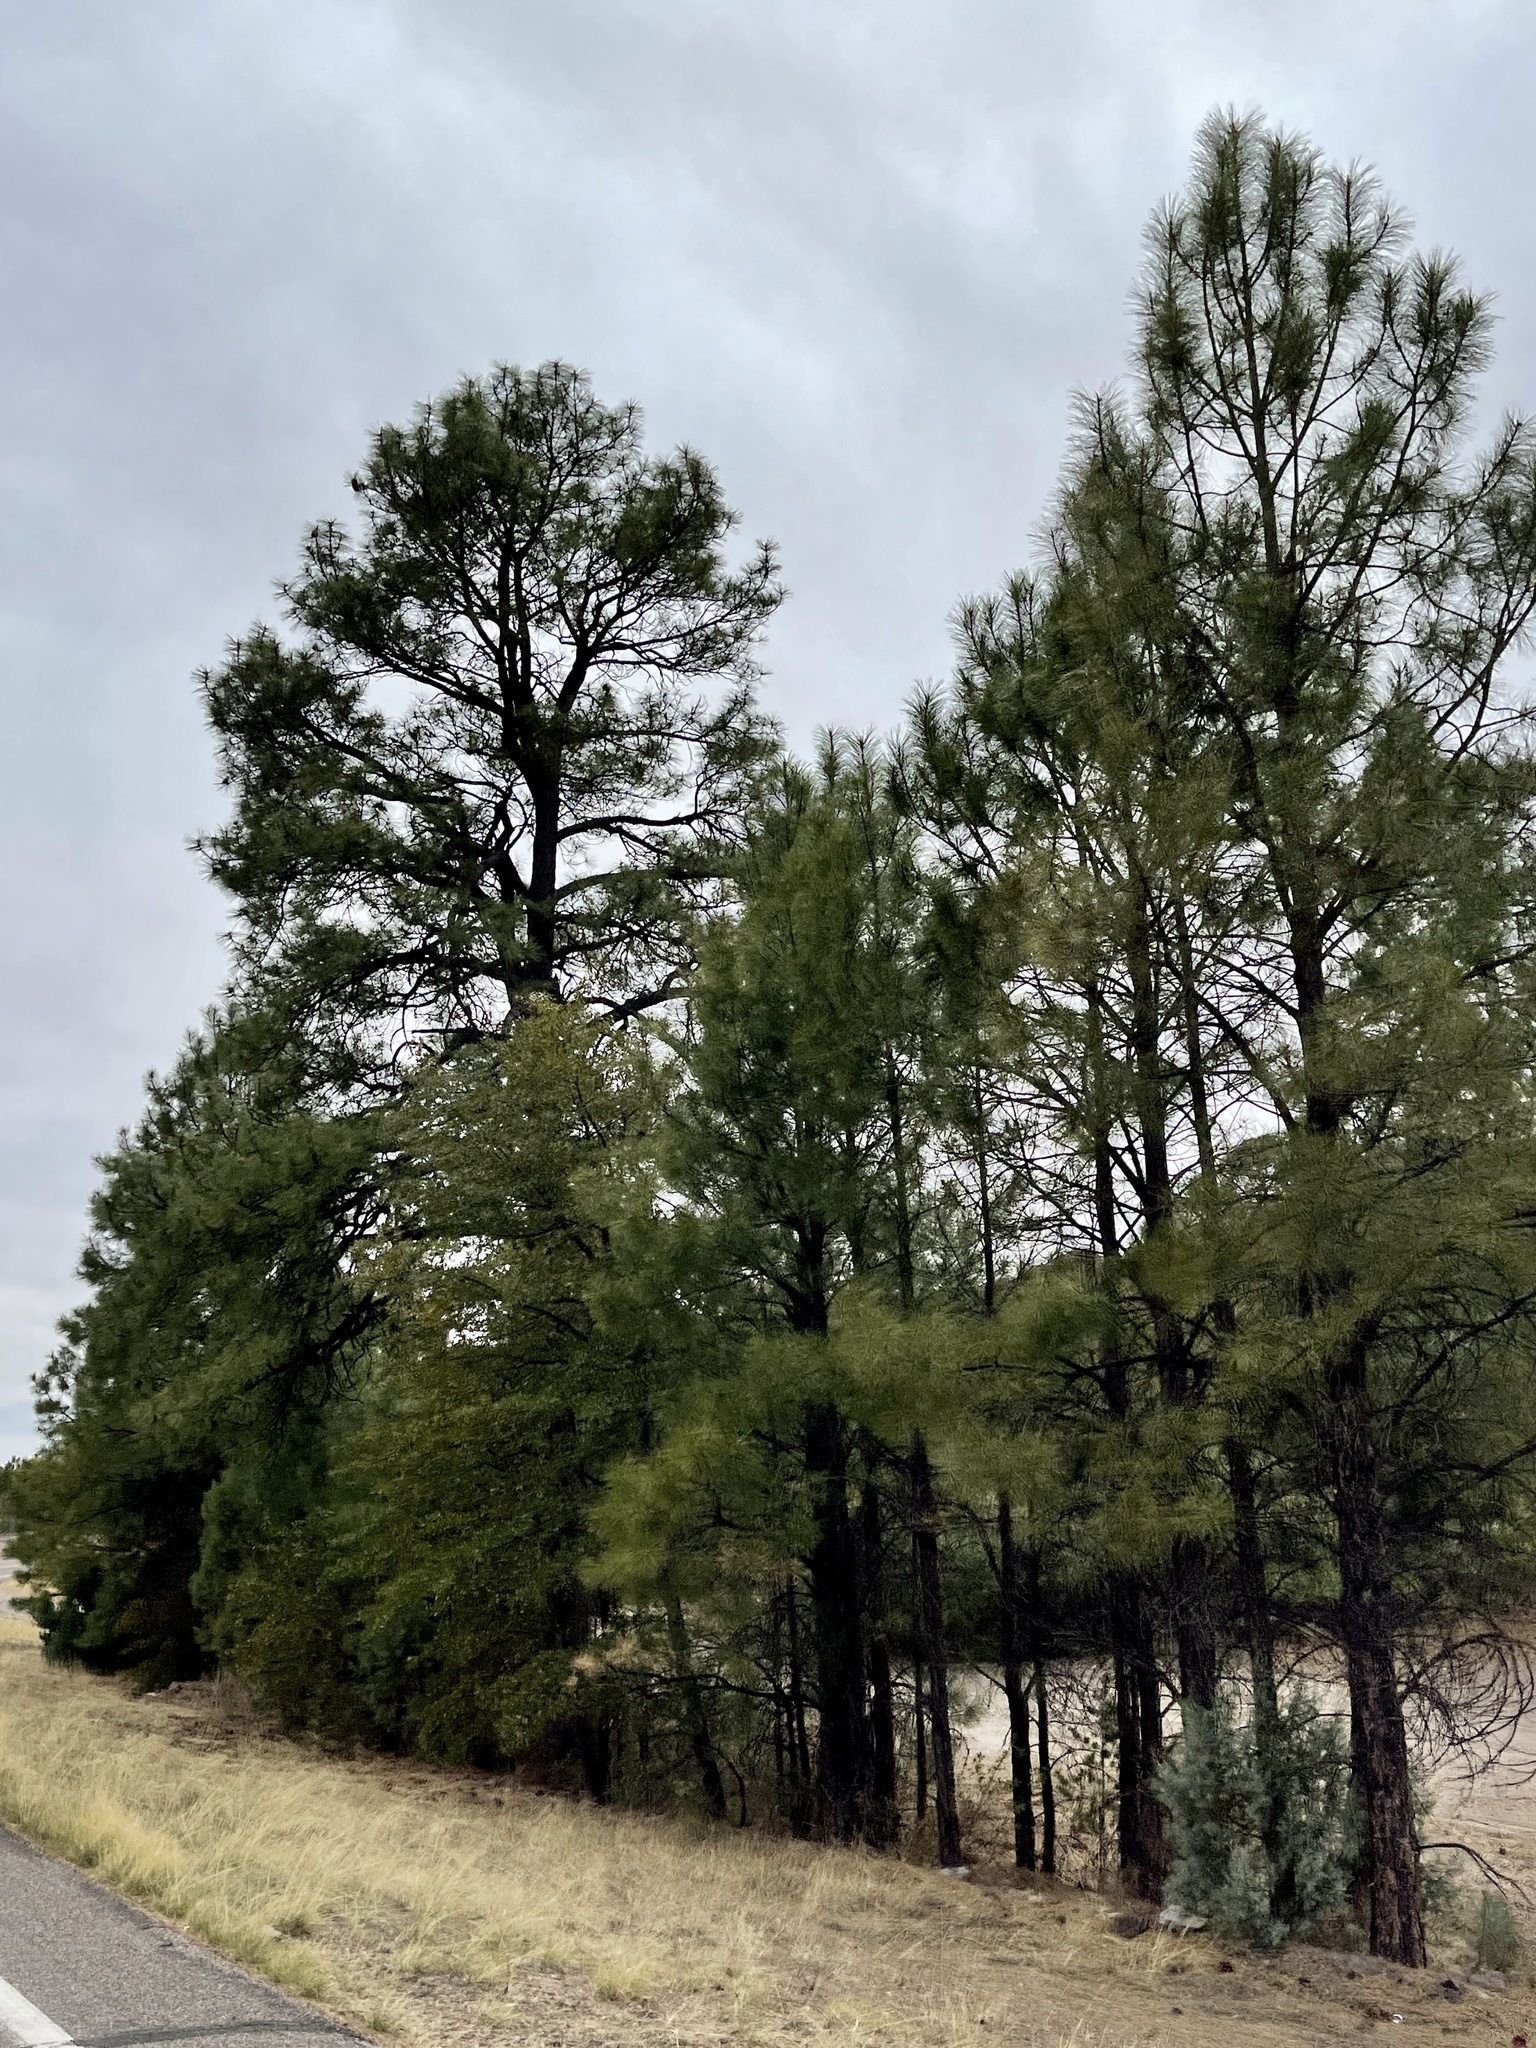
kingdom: Plantae
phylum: Tracheophyta
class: Pinopsida
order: Pinales
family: Pinaceae
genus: Pinus
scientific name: Pinus ponderosa
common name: Western yellow-pine
